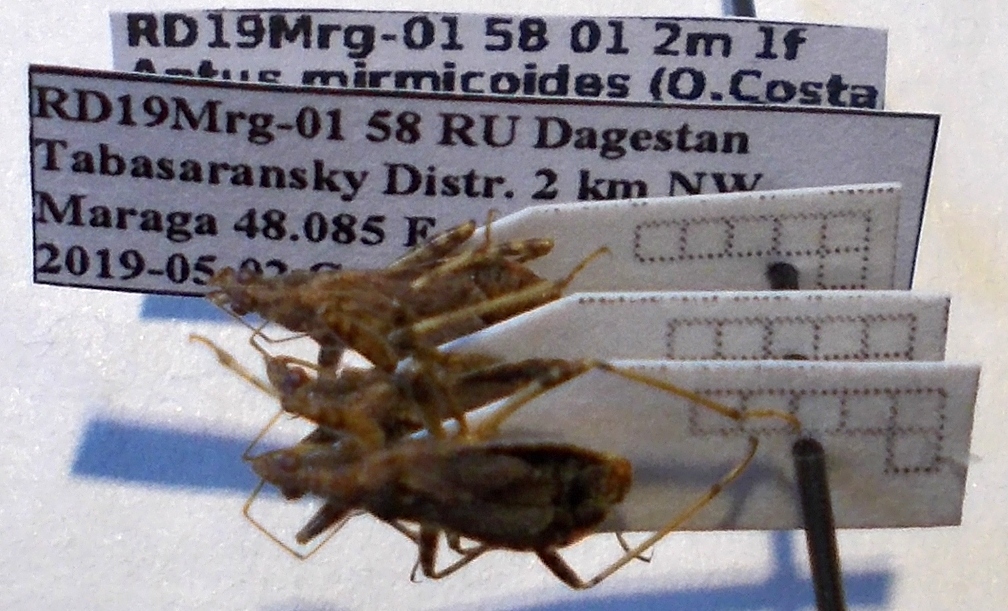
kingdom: Animalia
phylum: Arthropoda
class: Insecta
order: Hemiptera
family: Nabidae
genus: Himacerus
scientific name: Himacerus mirmicoides
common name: Ant damsel bug
